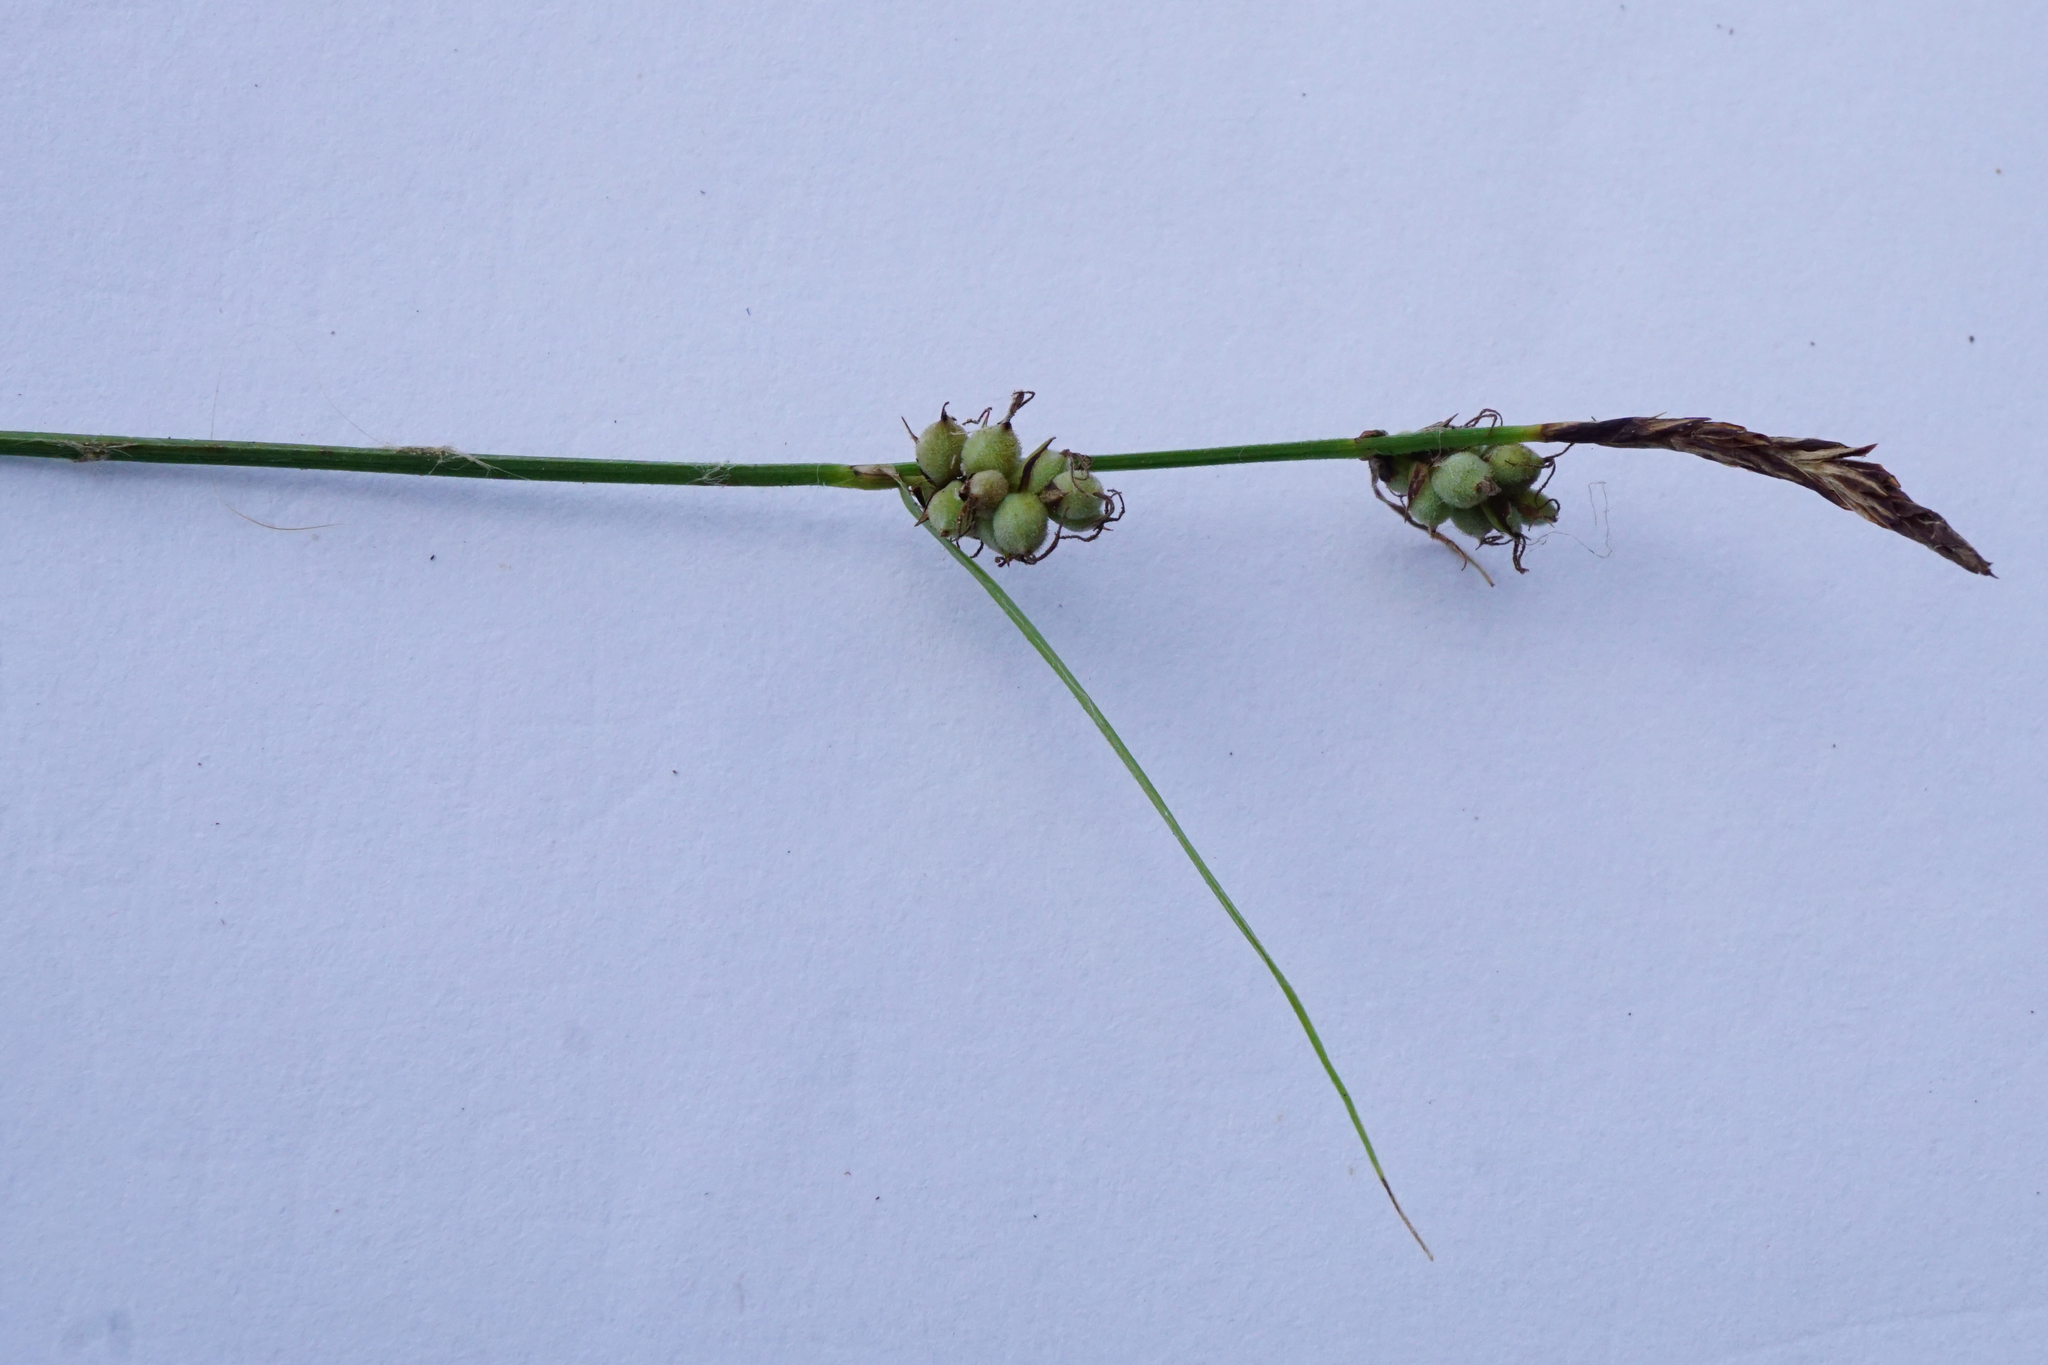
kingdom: Plantae
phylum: Tracheophyta
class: Liliopsida
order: Poales
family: Cyperaceae
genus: Carex
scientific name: Carex tomentosa
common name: Downy-fruited sedge
